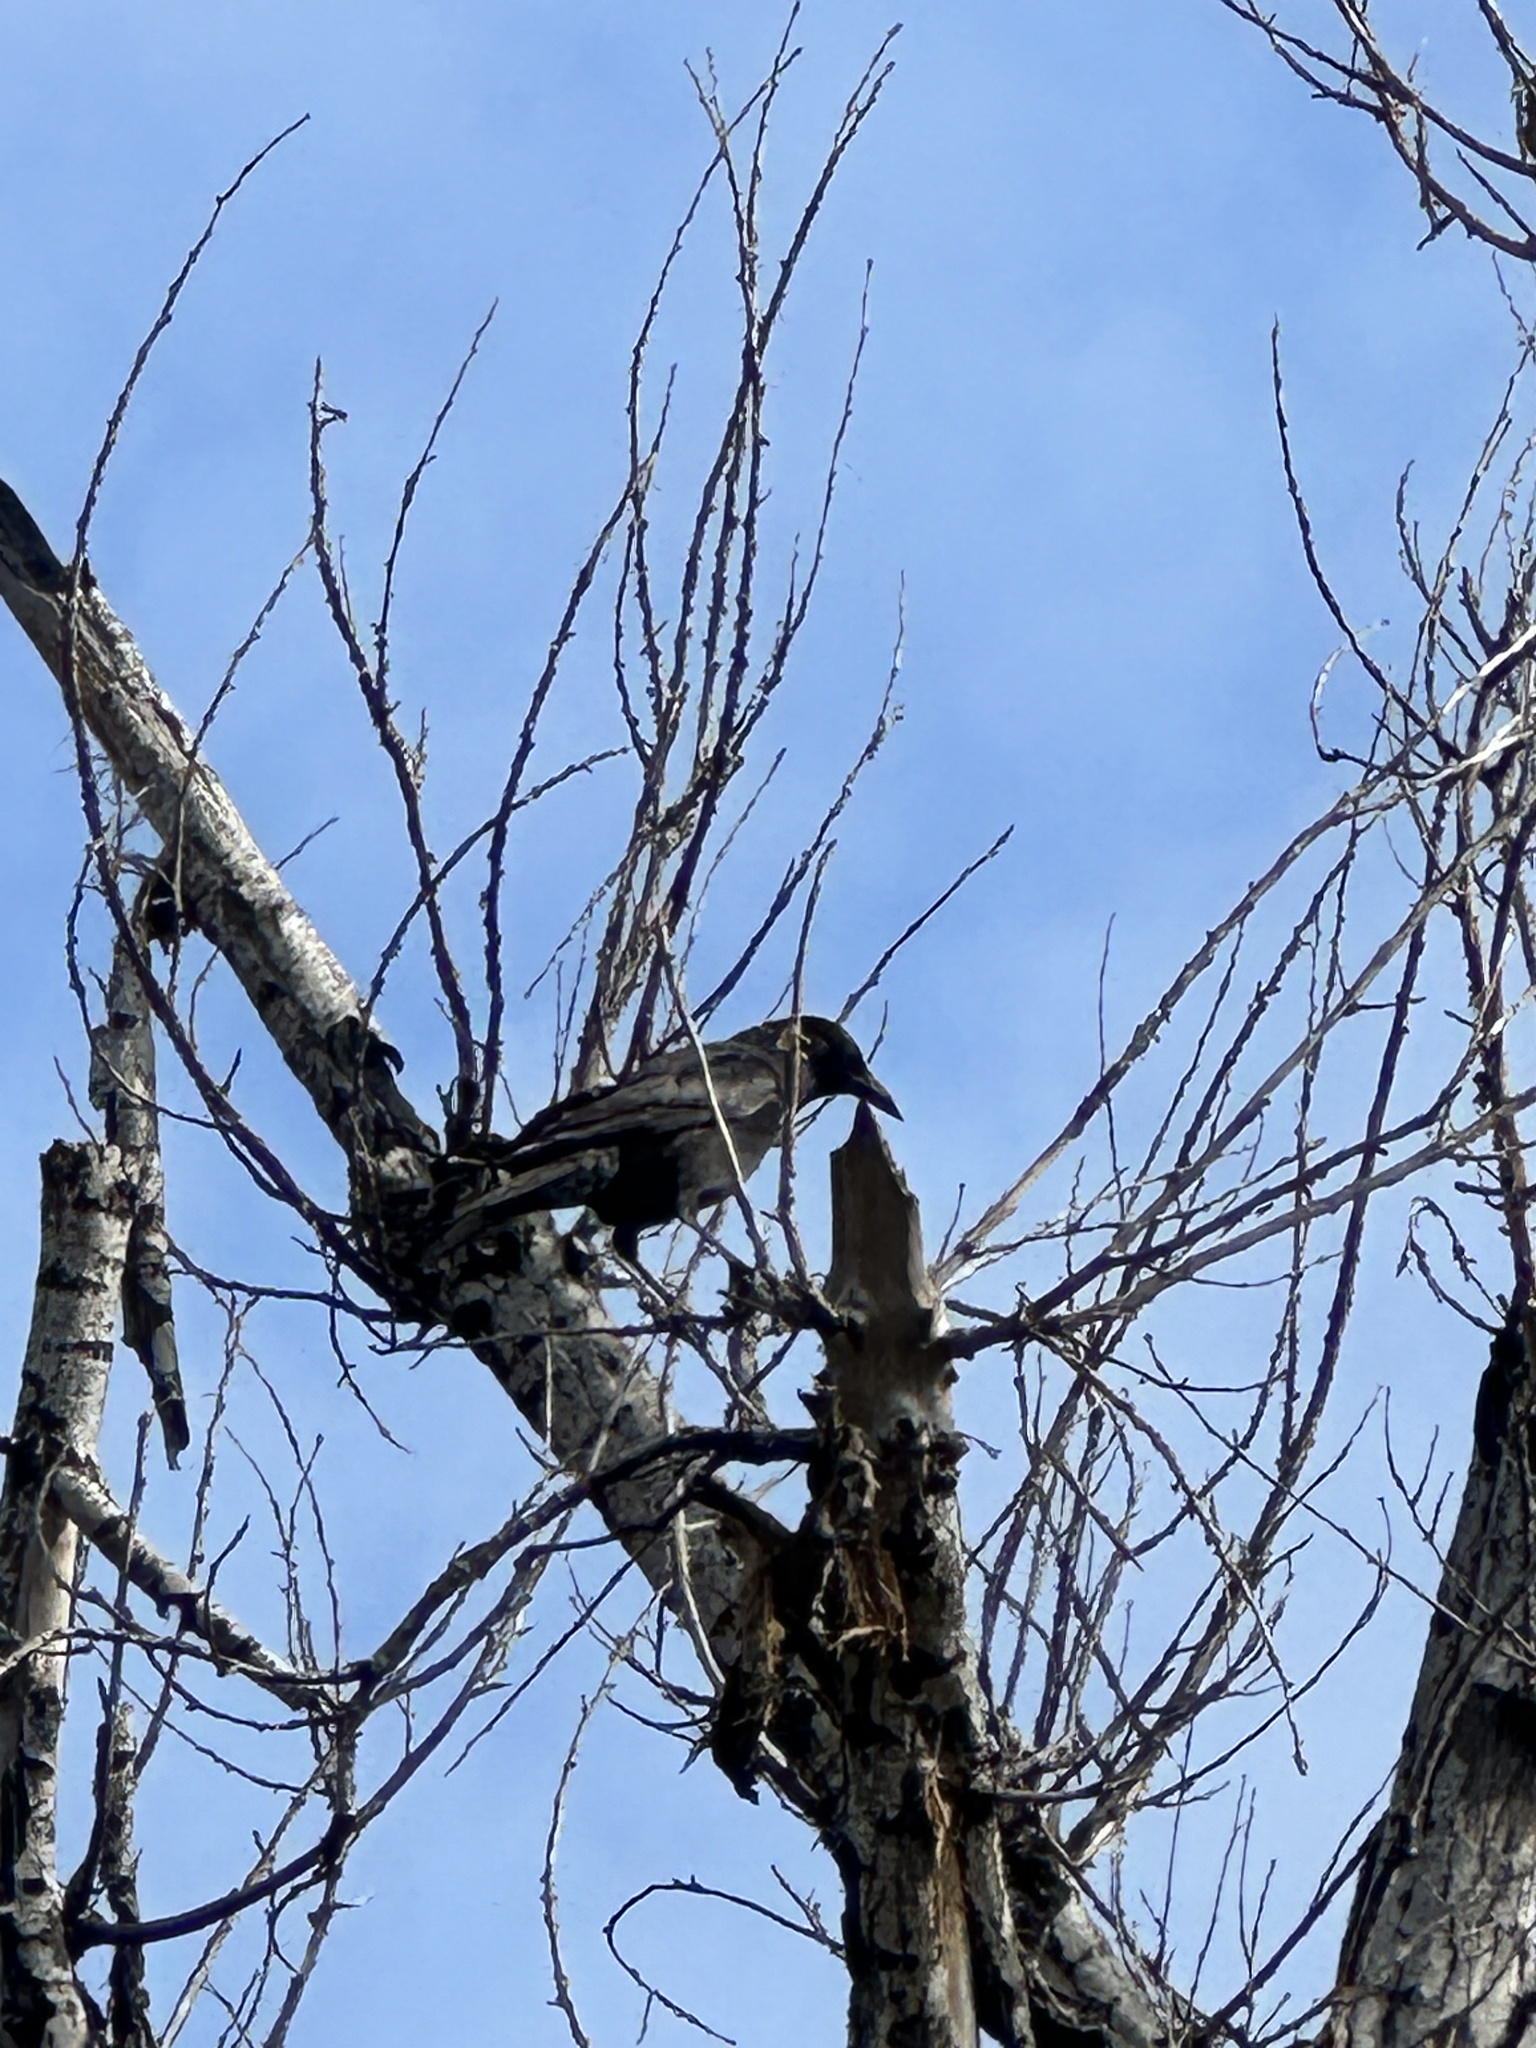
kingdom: Animalia
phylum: Chordata
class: Aves
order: Passeriformes
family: Corvidae
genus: Corvus
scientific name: Corvus brachyrhynchos
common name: American crow
